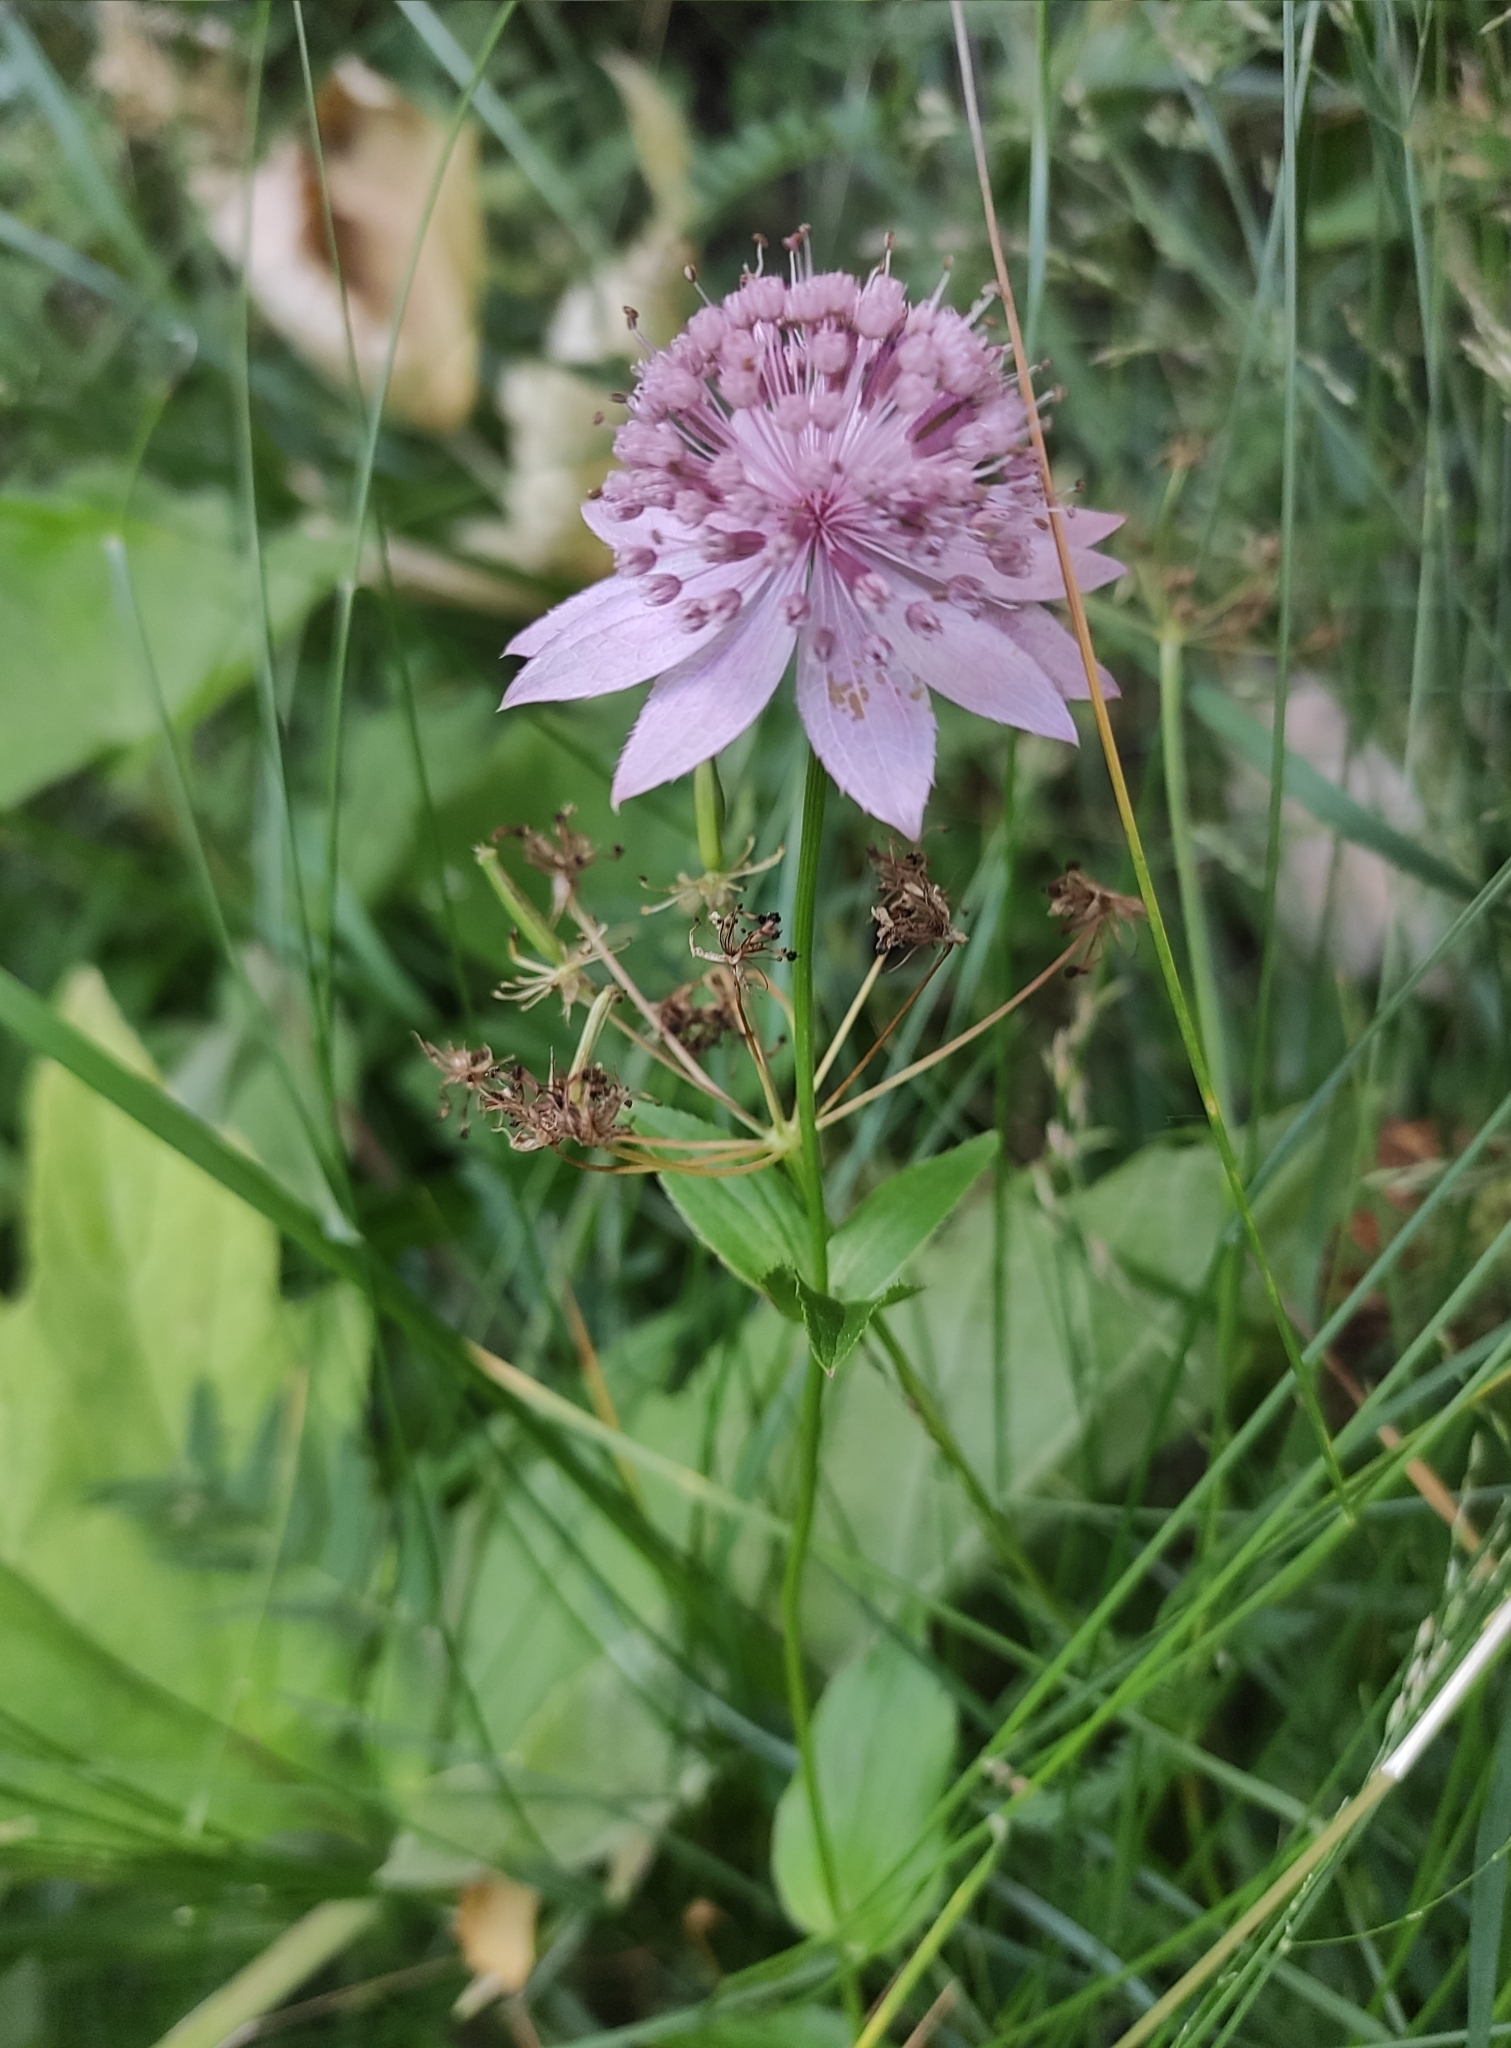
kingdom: Plantae
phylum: Tracheophyta
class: Magnoliopsida
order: Apiales
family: Apiaceae
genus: Astrantia
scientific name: Astrantia maxima
